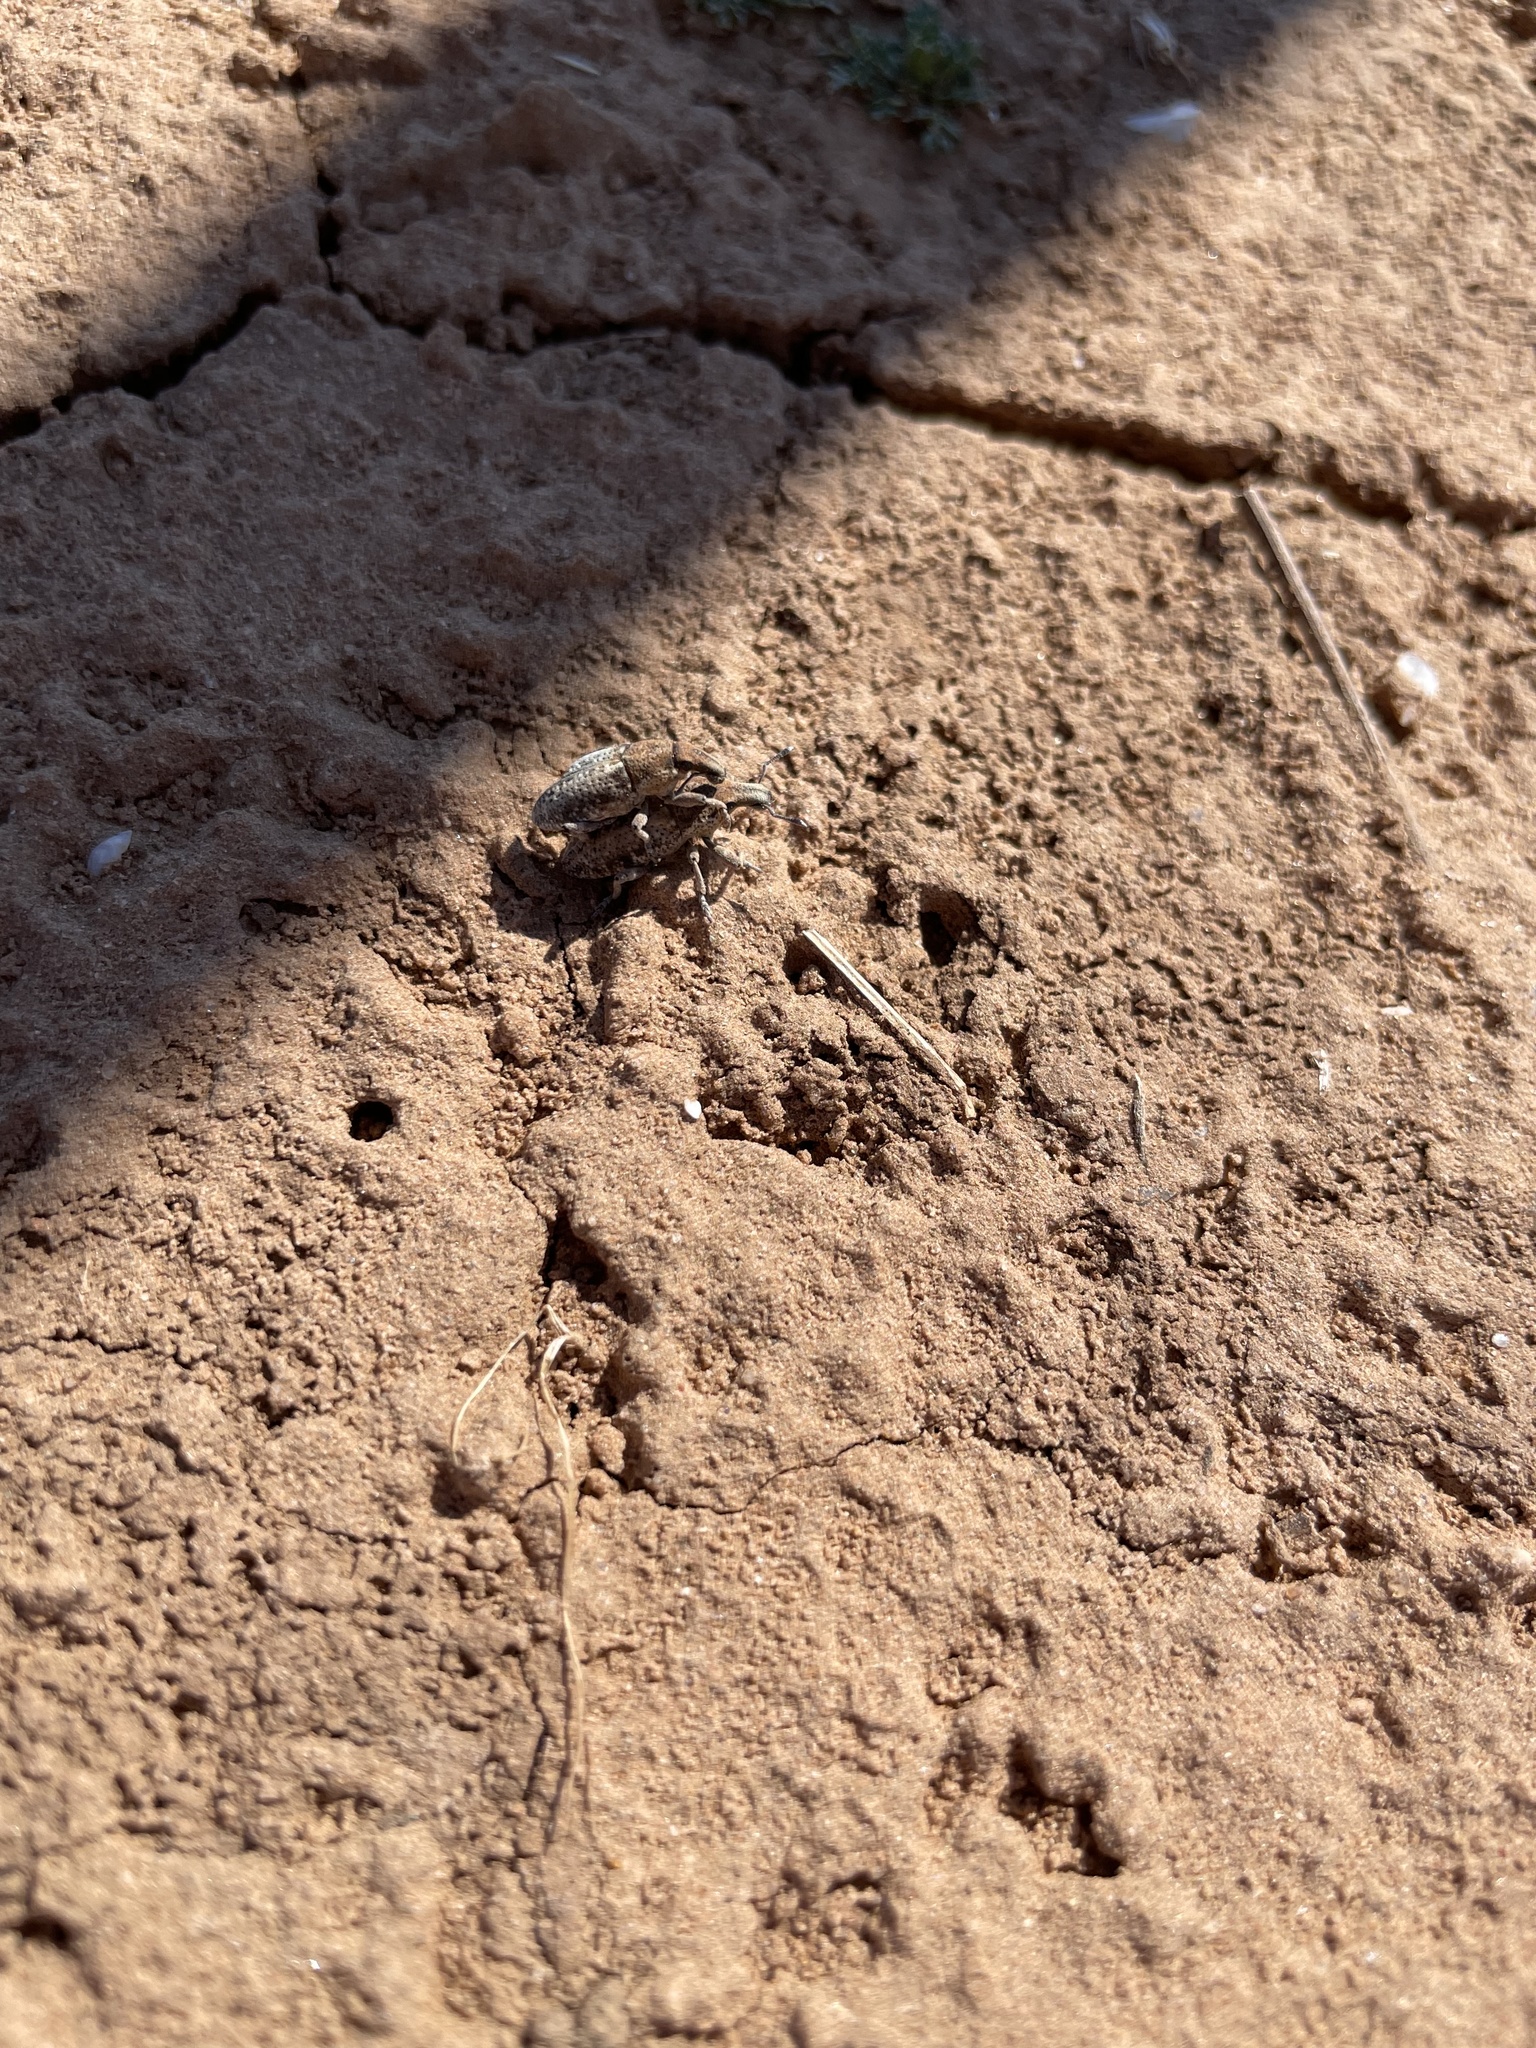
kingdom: Animalia
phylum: Arthropoda
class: Insecta
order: Coleoptera
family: Curculionidae
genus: Apleurus
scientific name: Apleurus lutulentus
